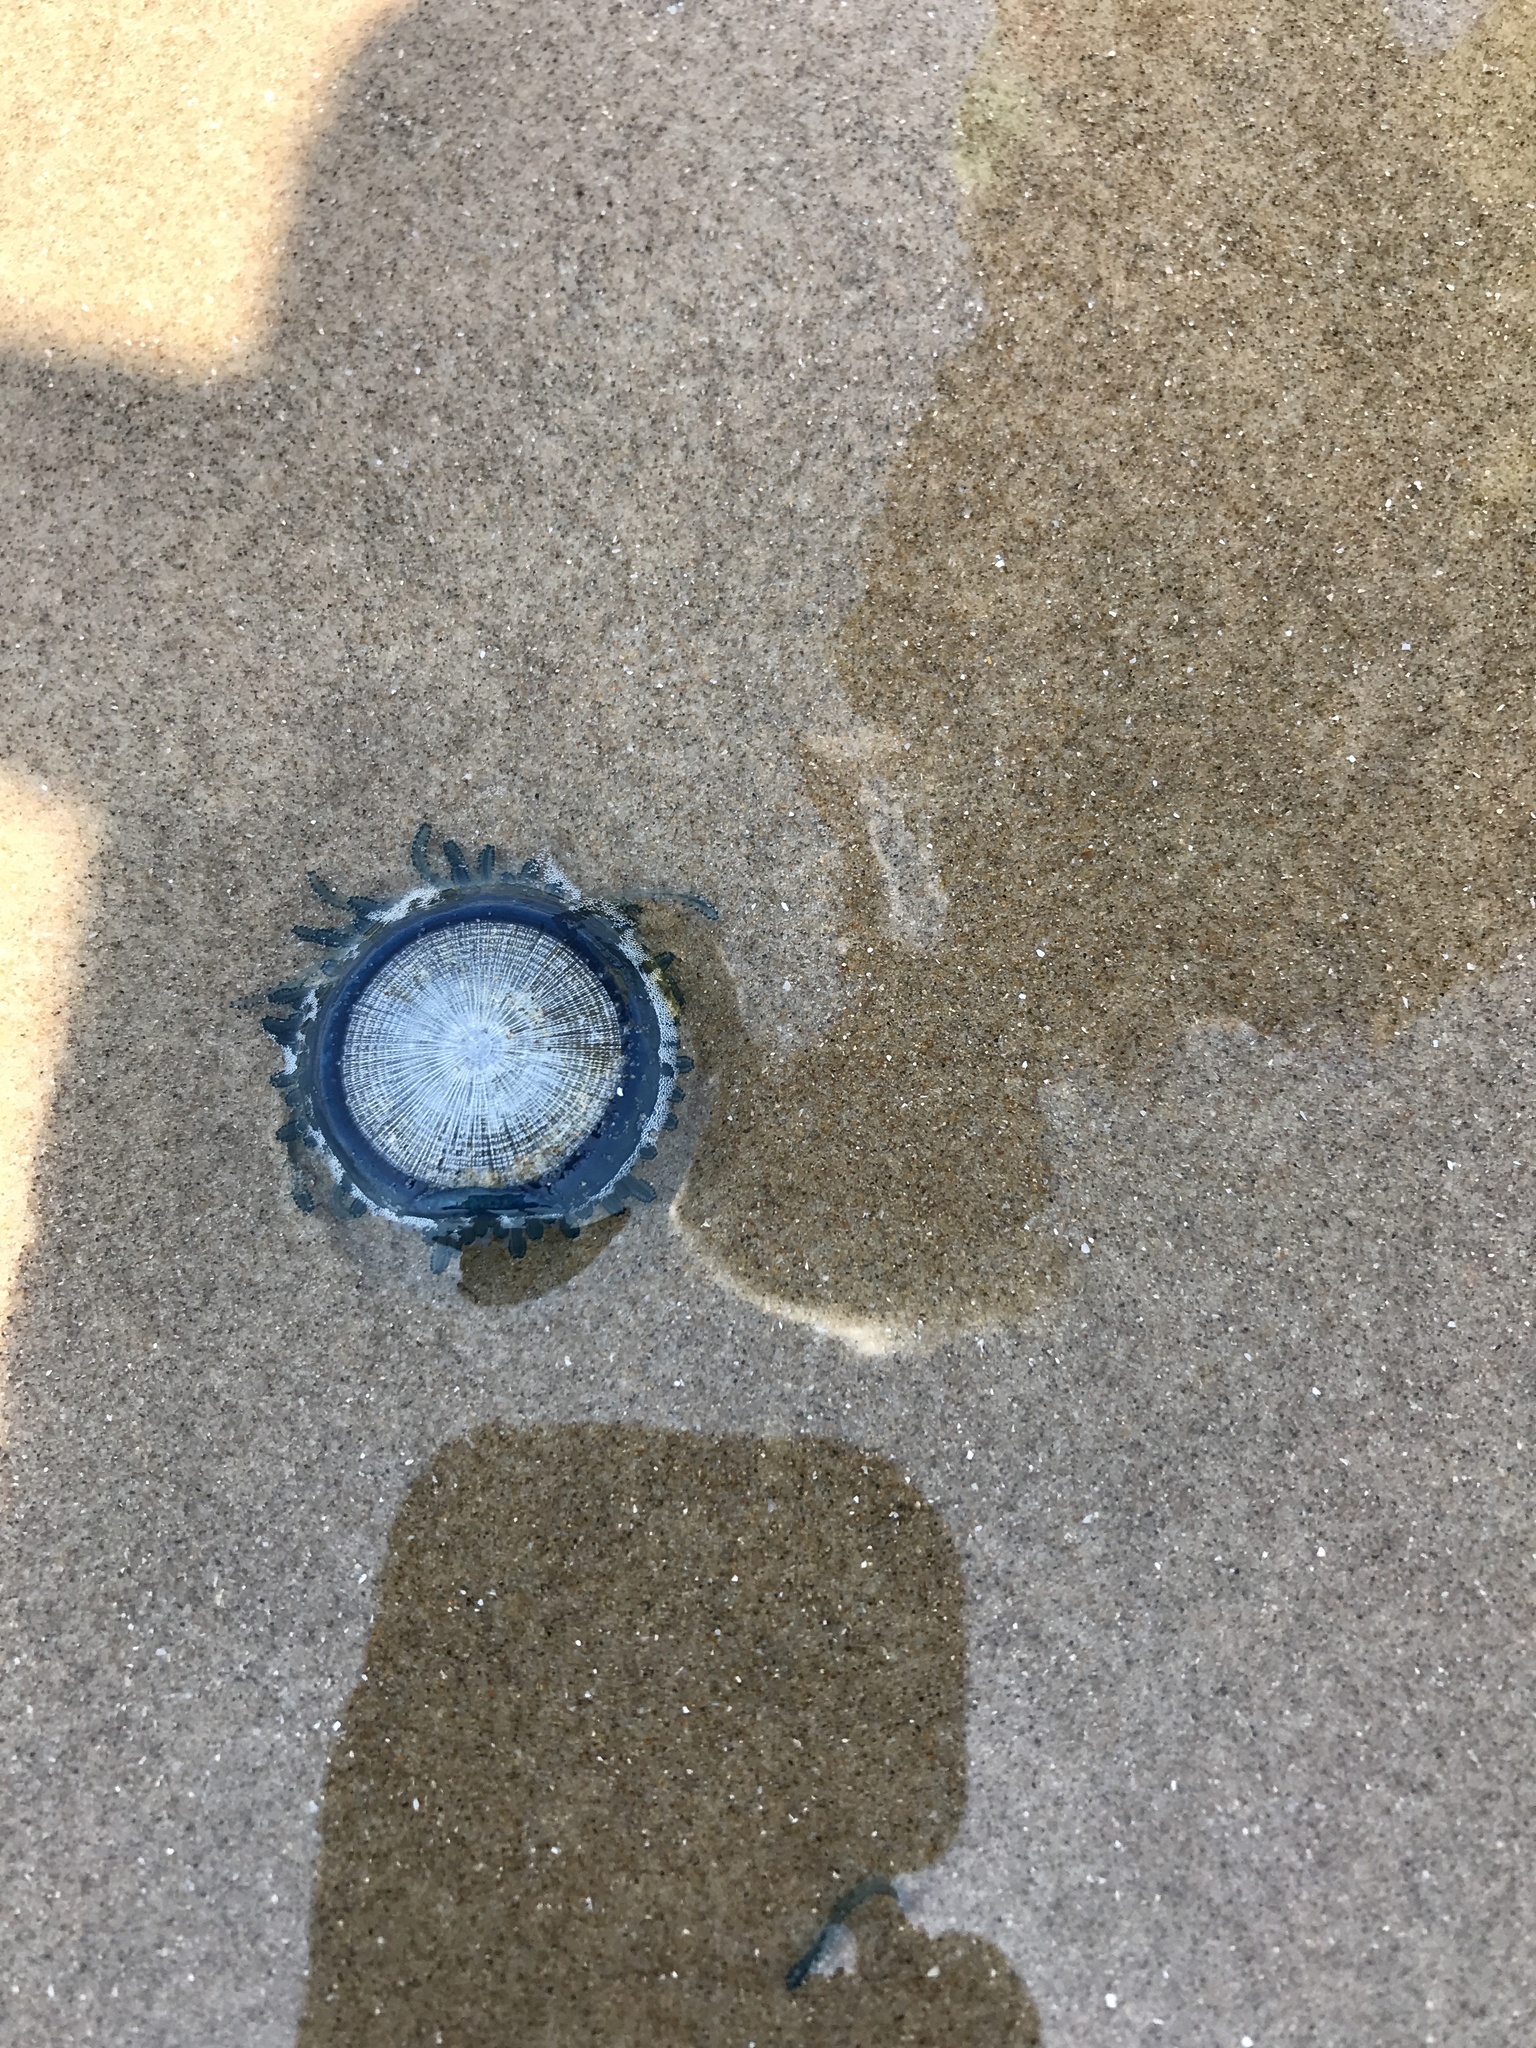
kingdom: Animalia
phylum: Cnidaria
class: Hydrozoa
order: Anthoathecata
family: Porpitidae
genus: Porpita
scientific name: Porpita porpita
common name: Blue button
